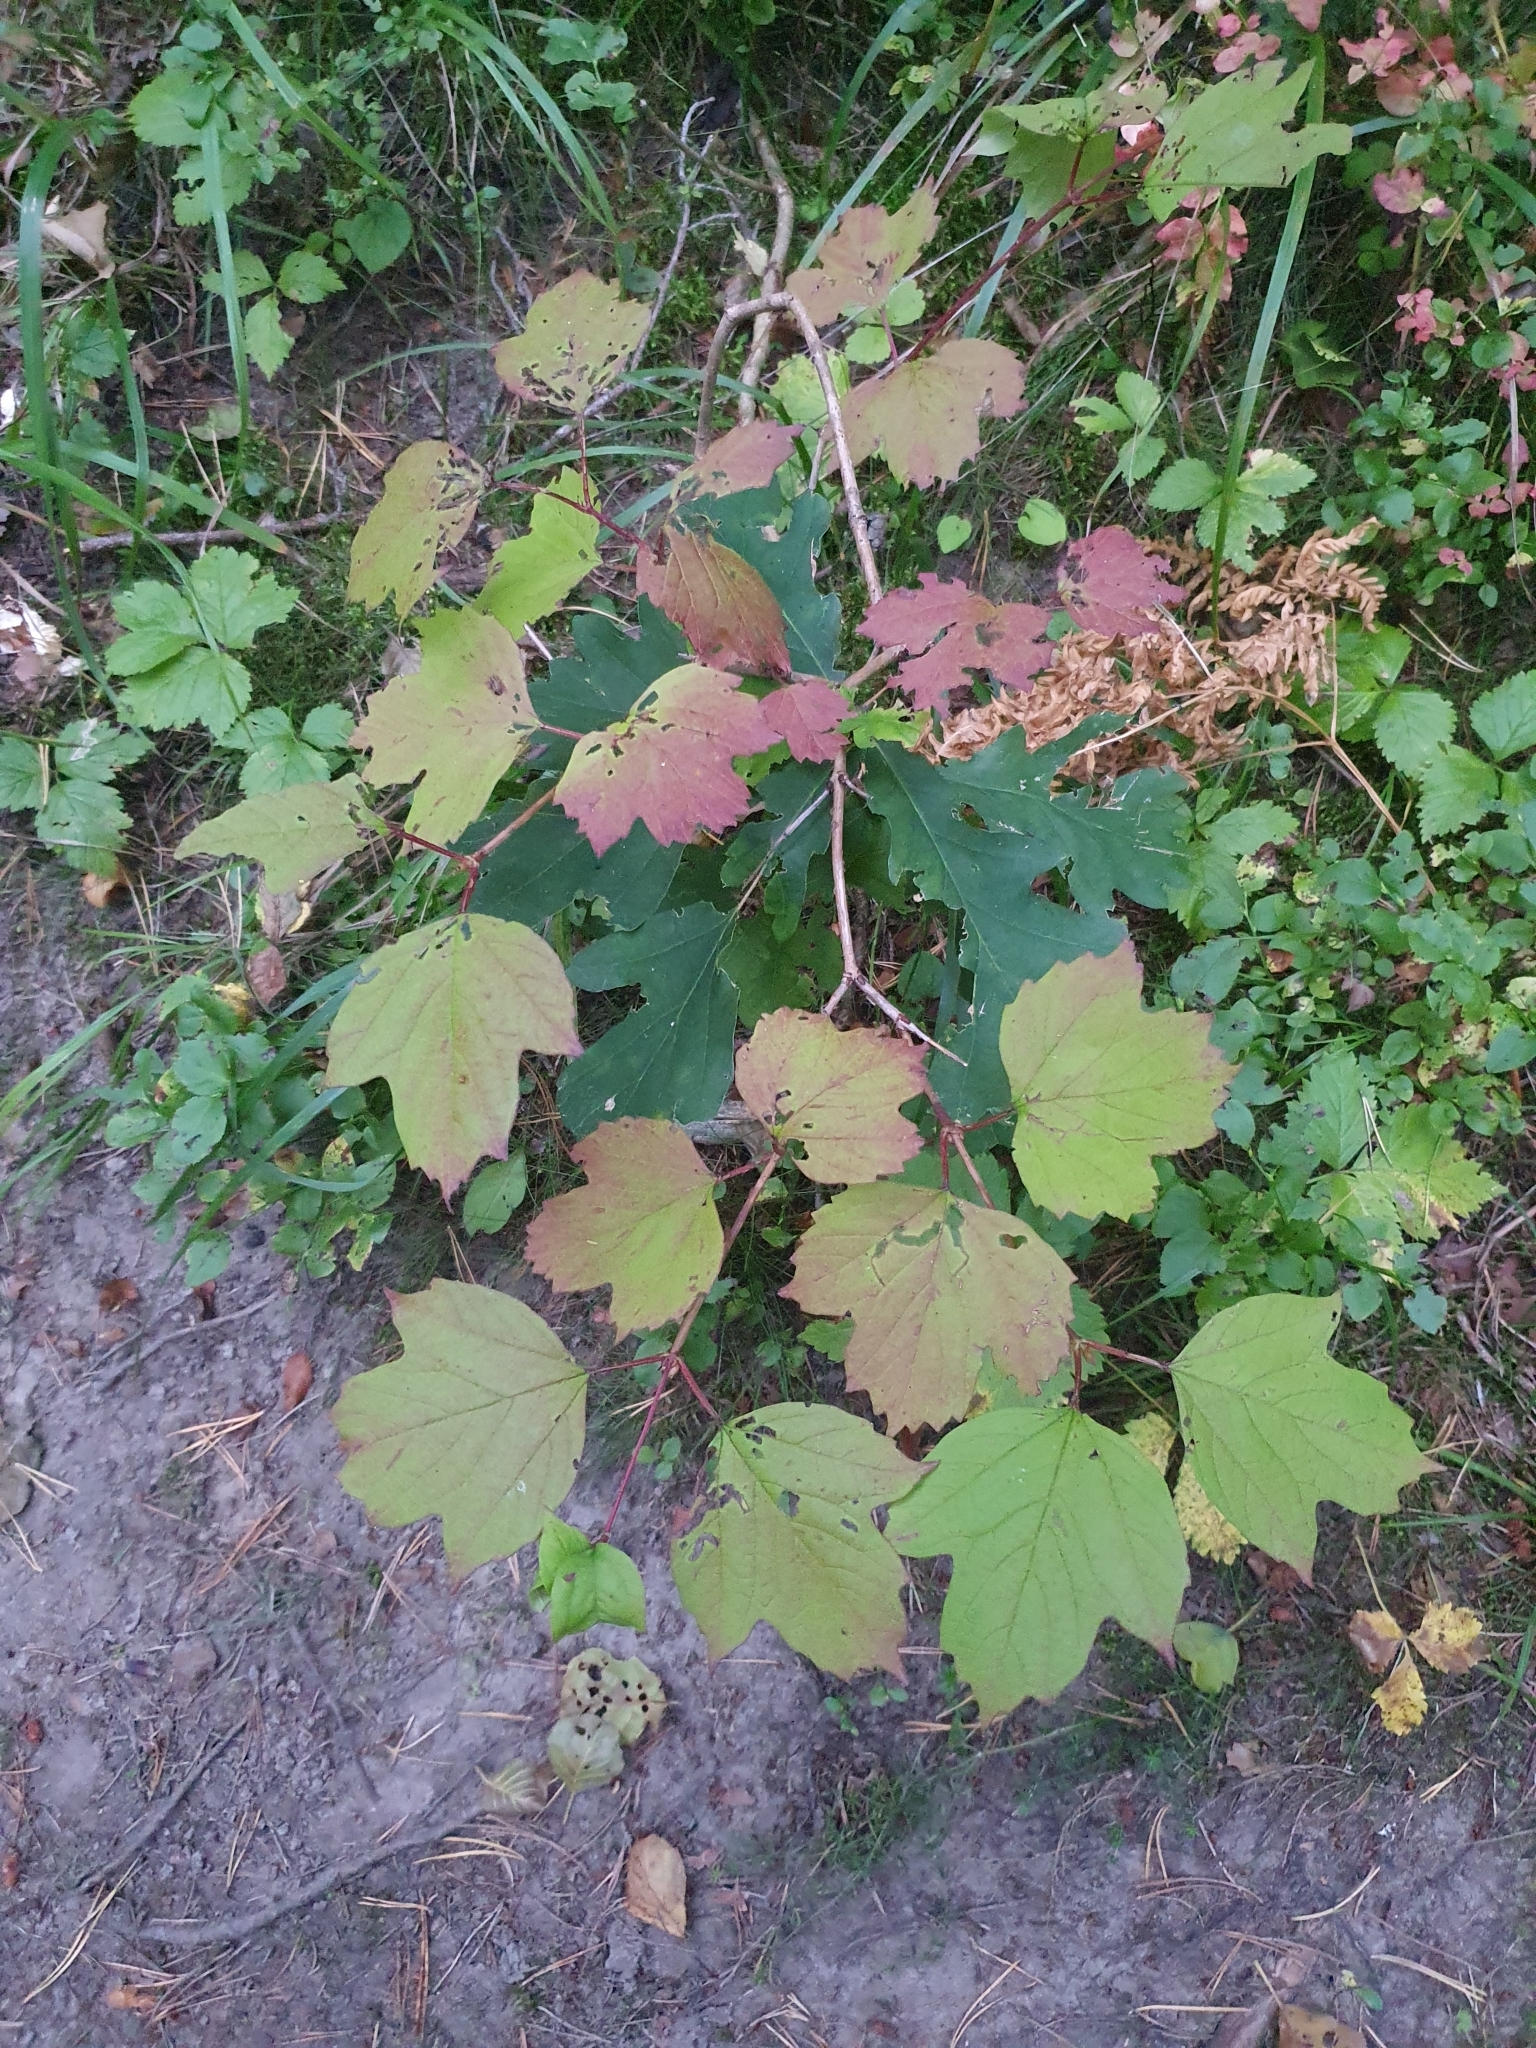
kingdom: Plantae
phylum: Tracheophyta
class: Magnoliopsida
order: Dipsacales
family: Viburnaceae
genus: Viburnum
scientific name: Viburnum opulus
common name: Guelder-rose
